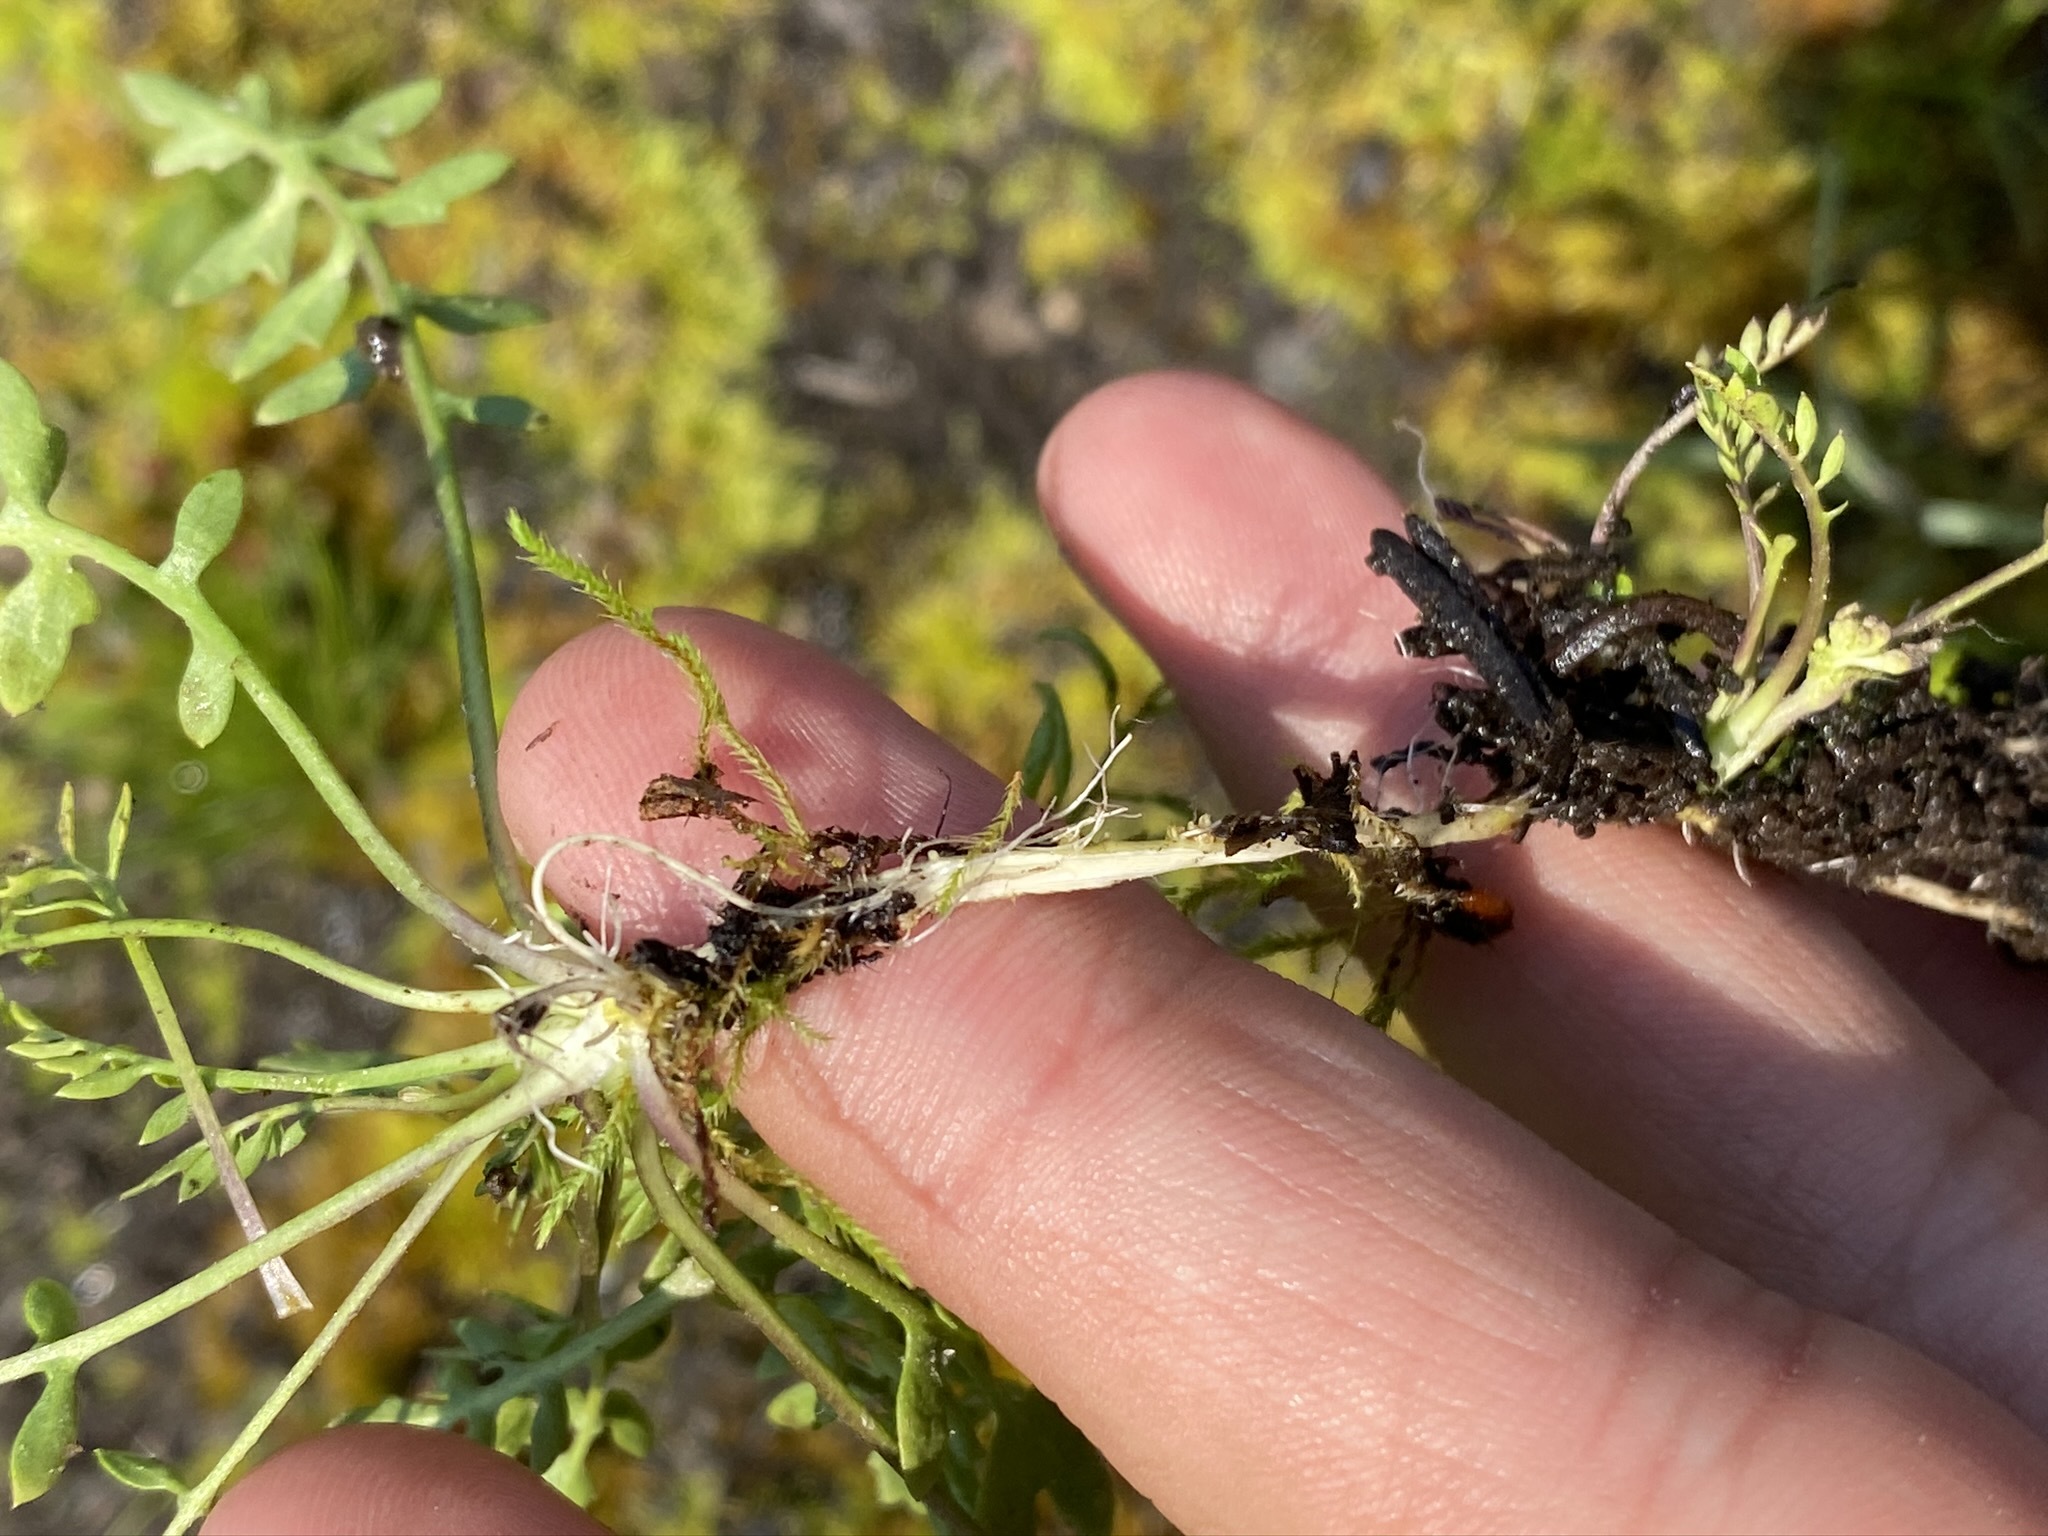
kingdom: Plantae
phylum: Tracheophyta
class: Magnoliopsida
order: Brassicales
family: Brassicaceae
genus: Rorippa
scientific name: Rorippa curvisiliqua
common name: Curve-pod yellow cress
